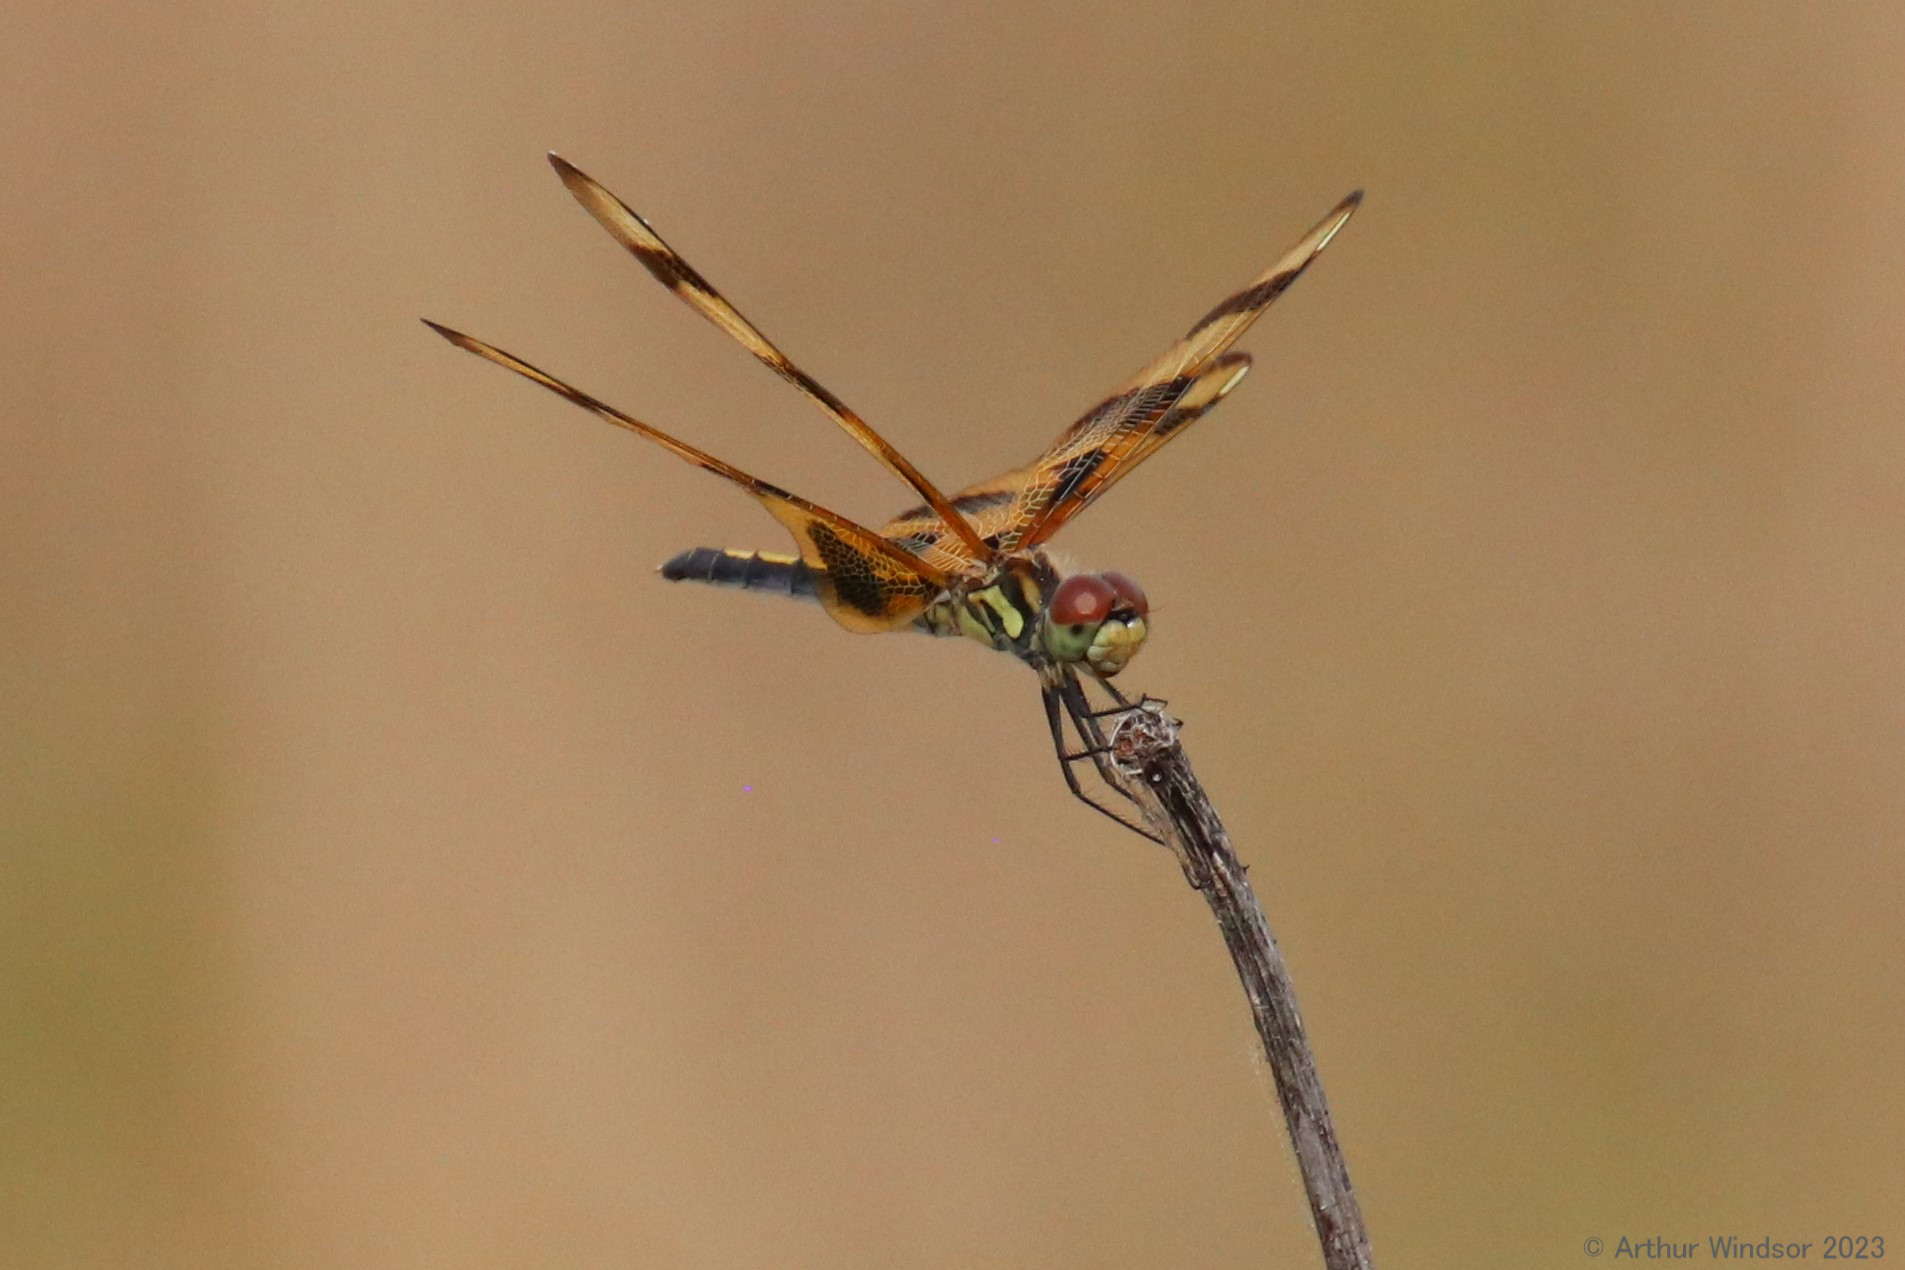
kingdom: Animalia
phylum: Arthropoda
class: Insecta
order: Odonata
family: Libellulidae
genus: Celithemis
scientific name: Celithemis eponina
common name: Halloween pennant
